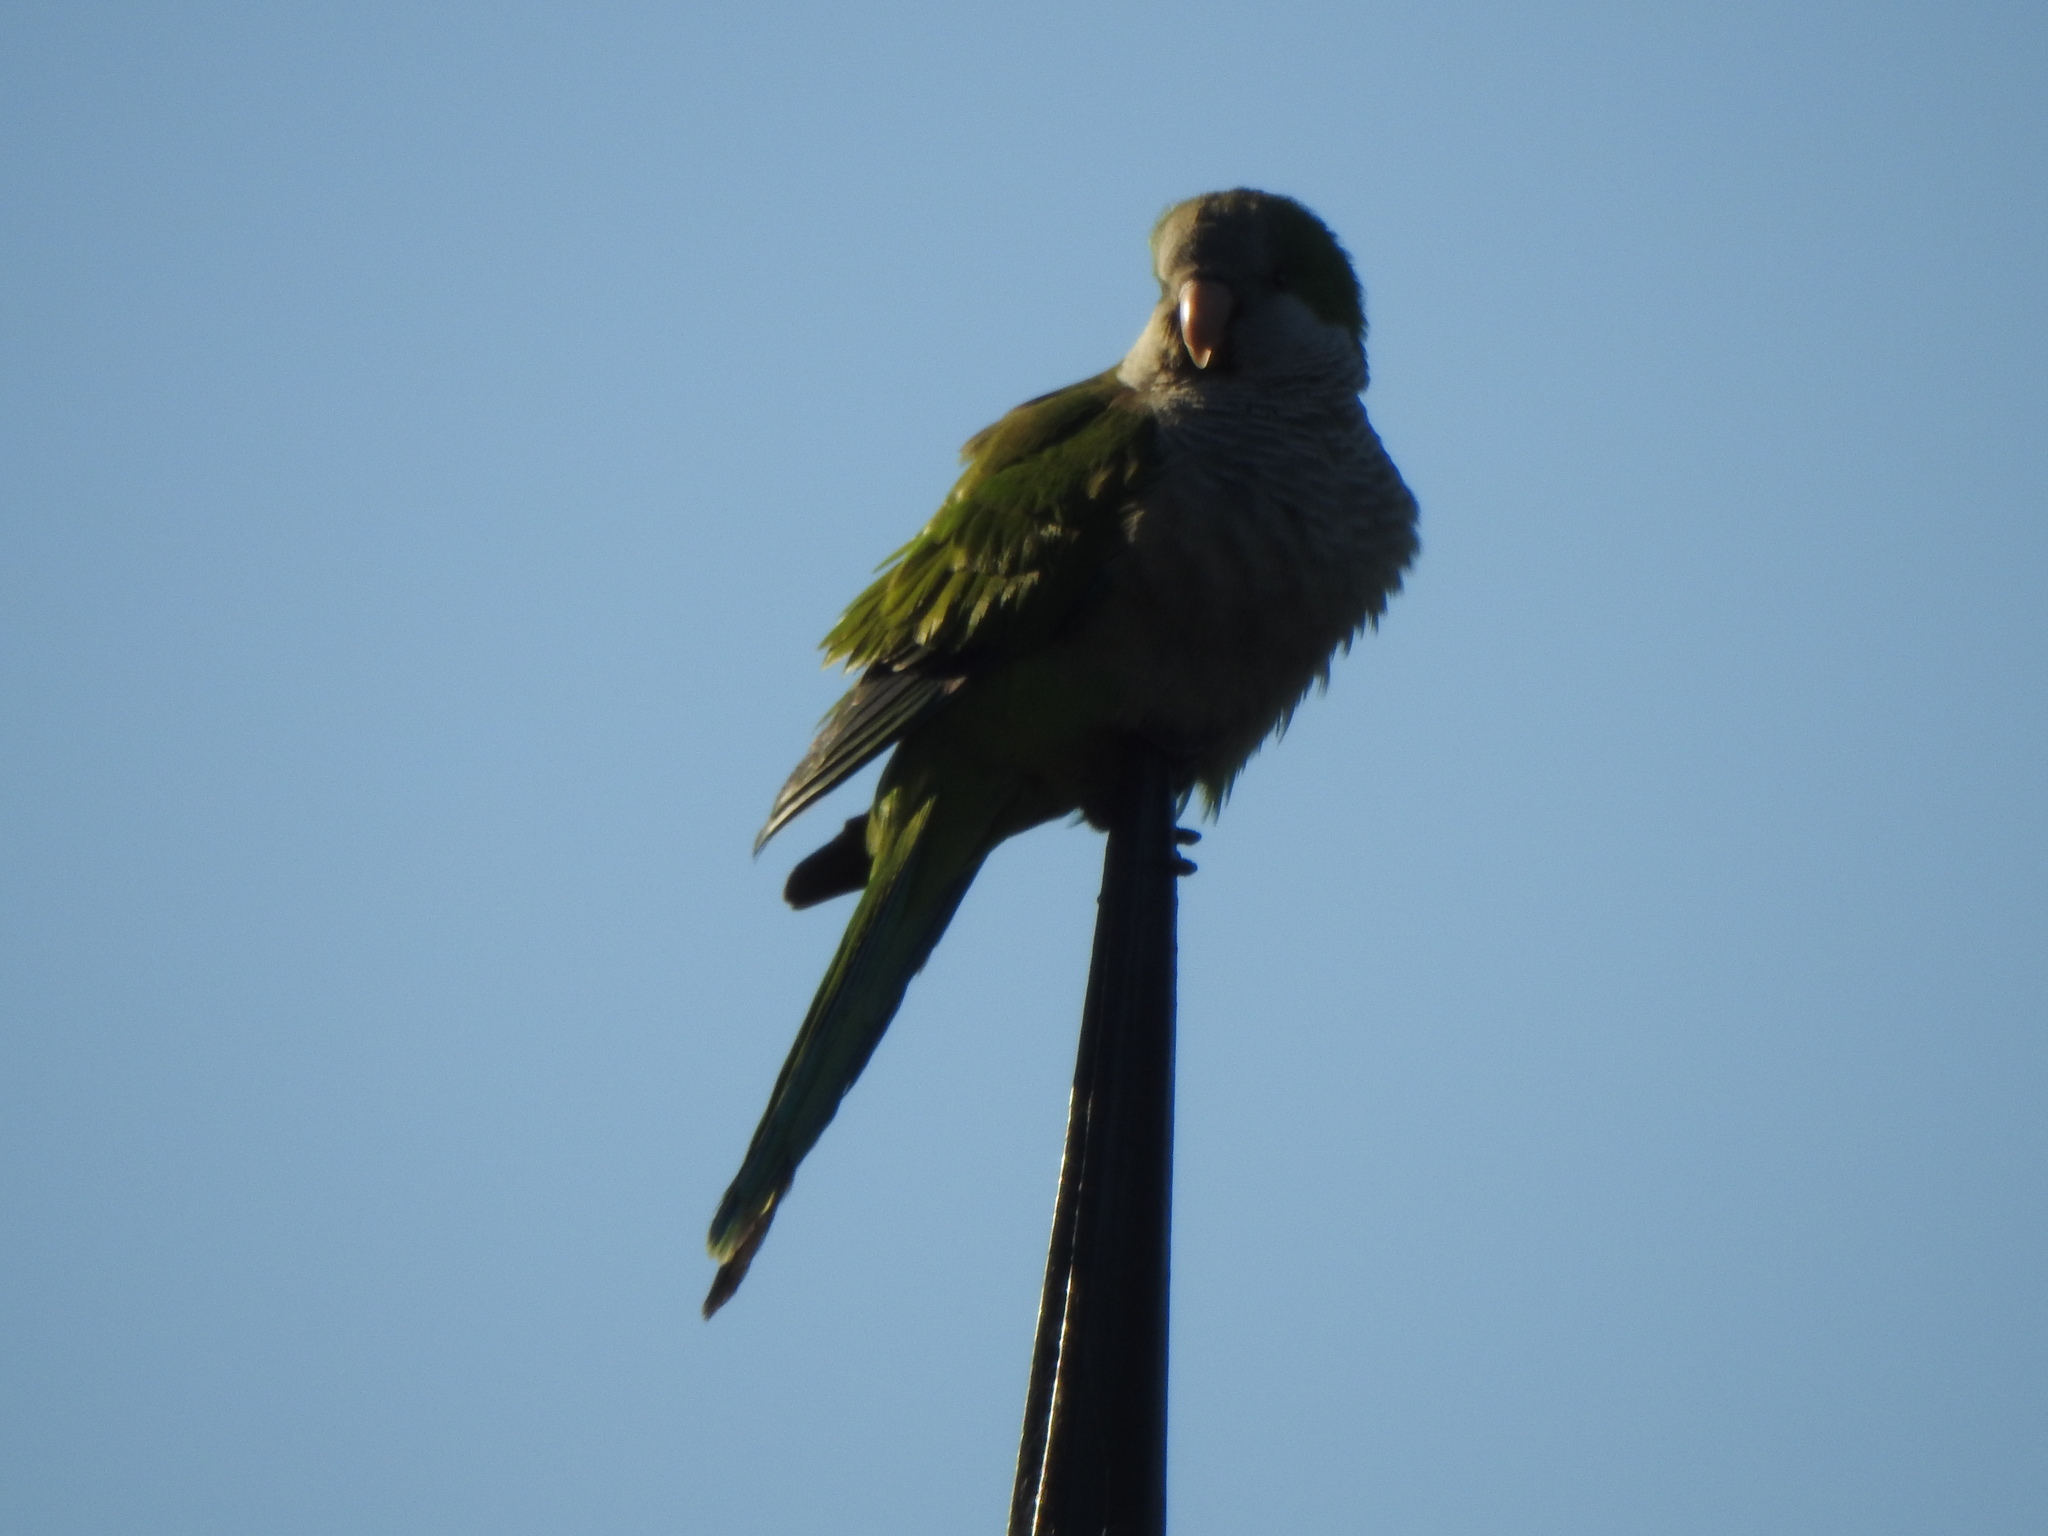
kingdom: Animalia
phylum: Chordata
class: Aves
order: Psittaciformes
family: Psittacidae
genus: Myiopsitta
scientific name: Myiopsitta monachus
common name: Monk parakeet
